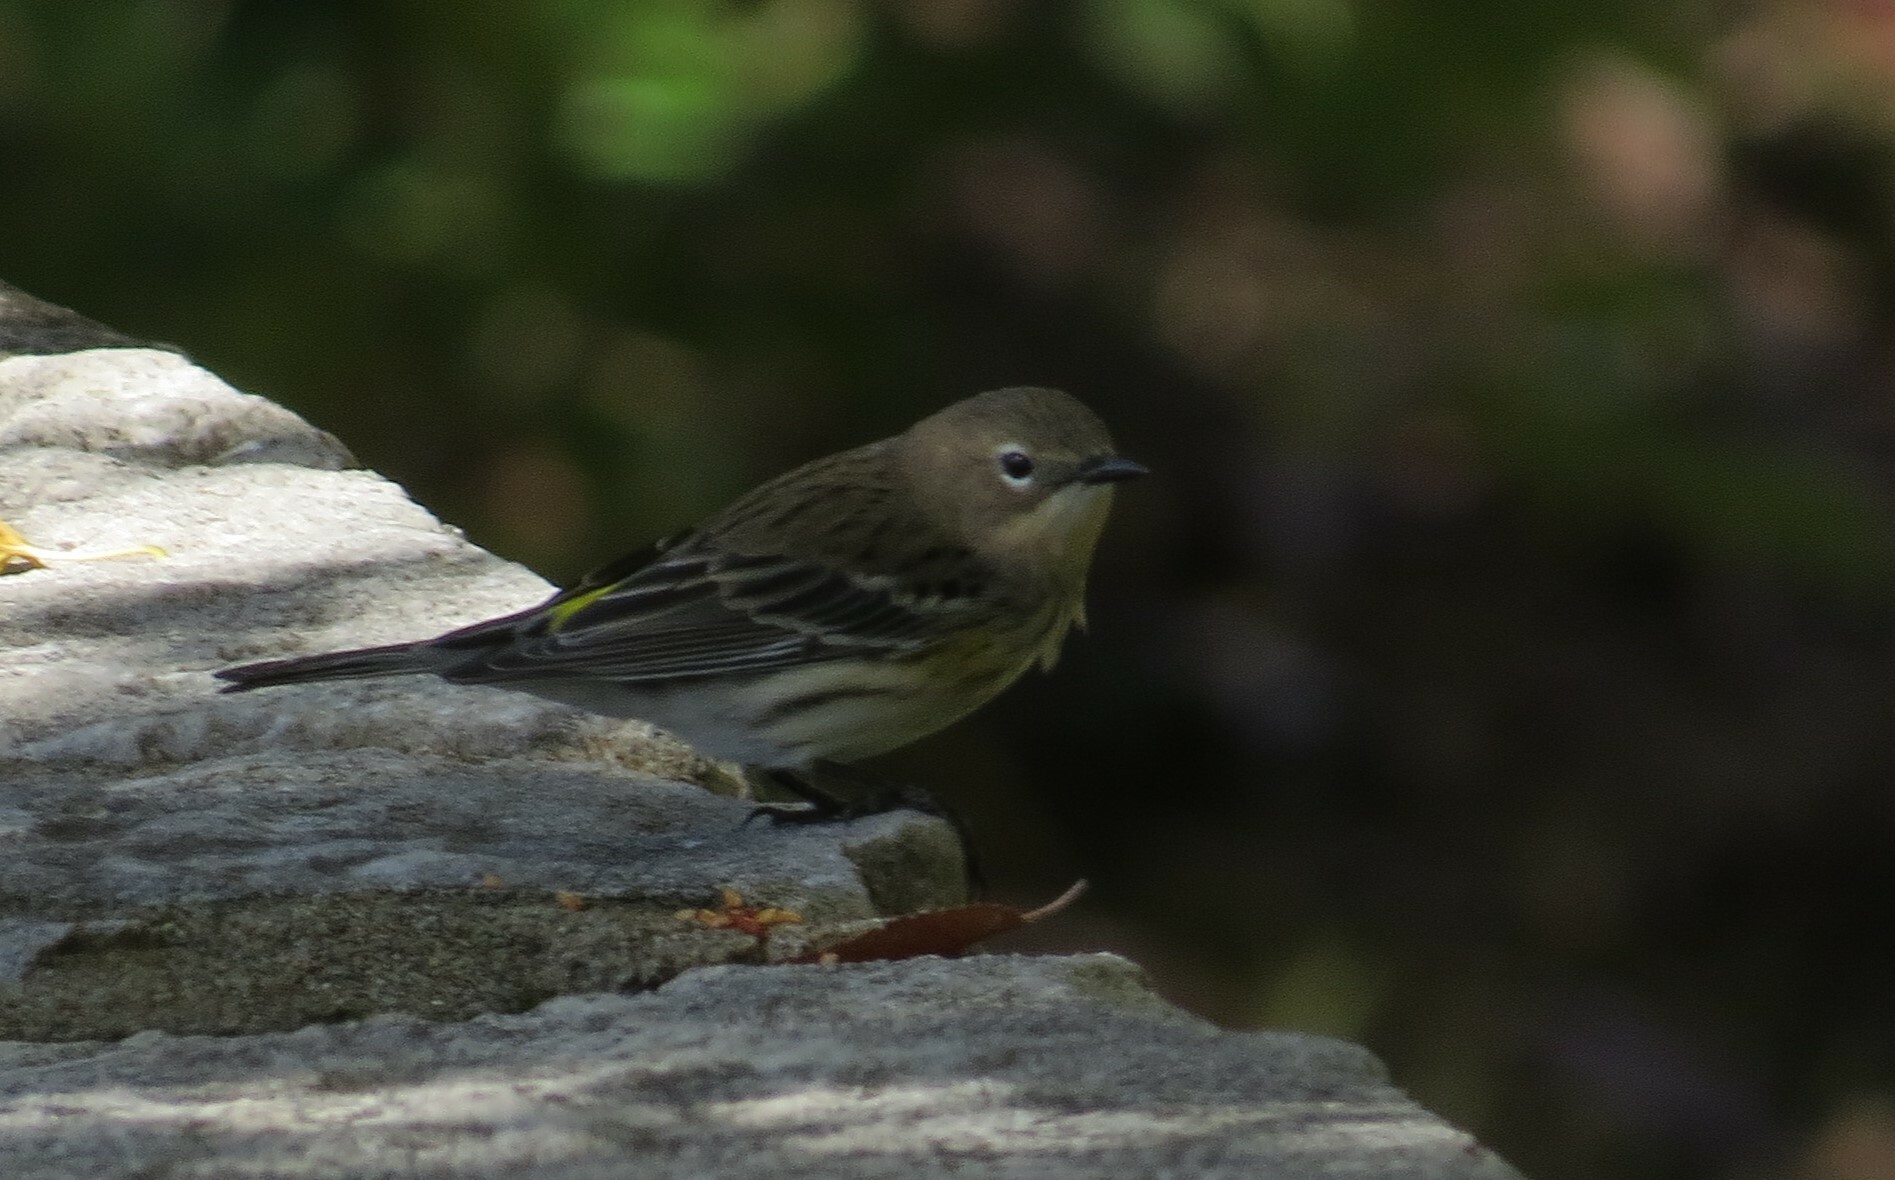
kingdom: Animalia
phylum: Chordata
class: Aves
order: Passeriformes
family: Parulidae
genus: Setophaga
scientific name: Setophaga coronata
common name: Myrtle warbler
